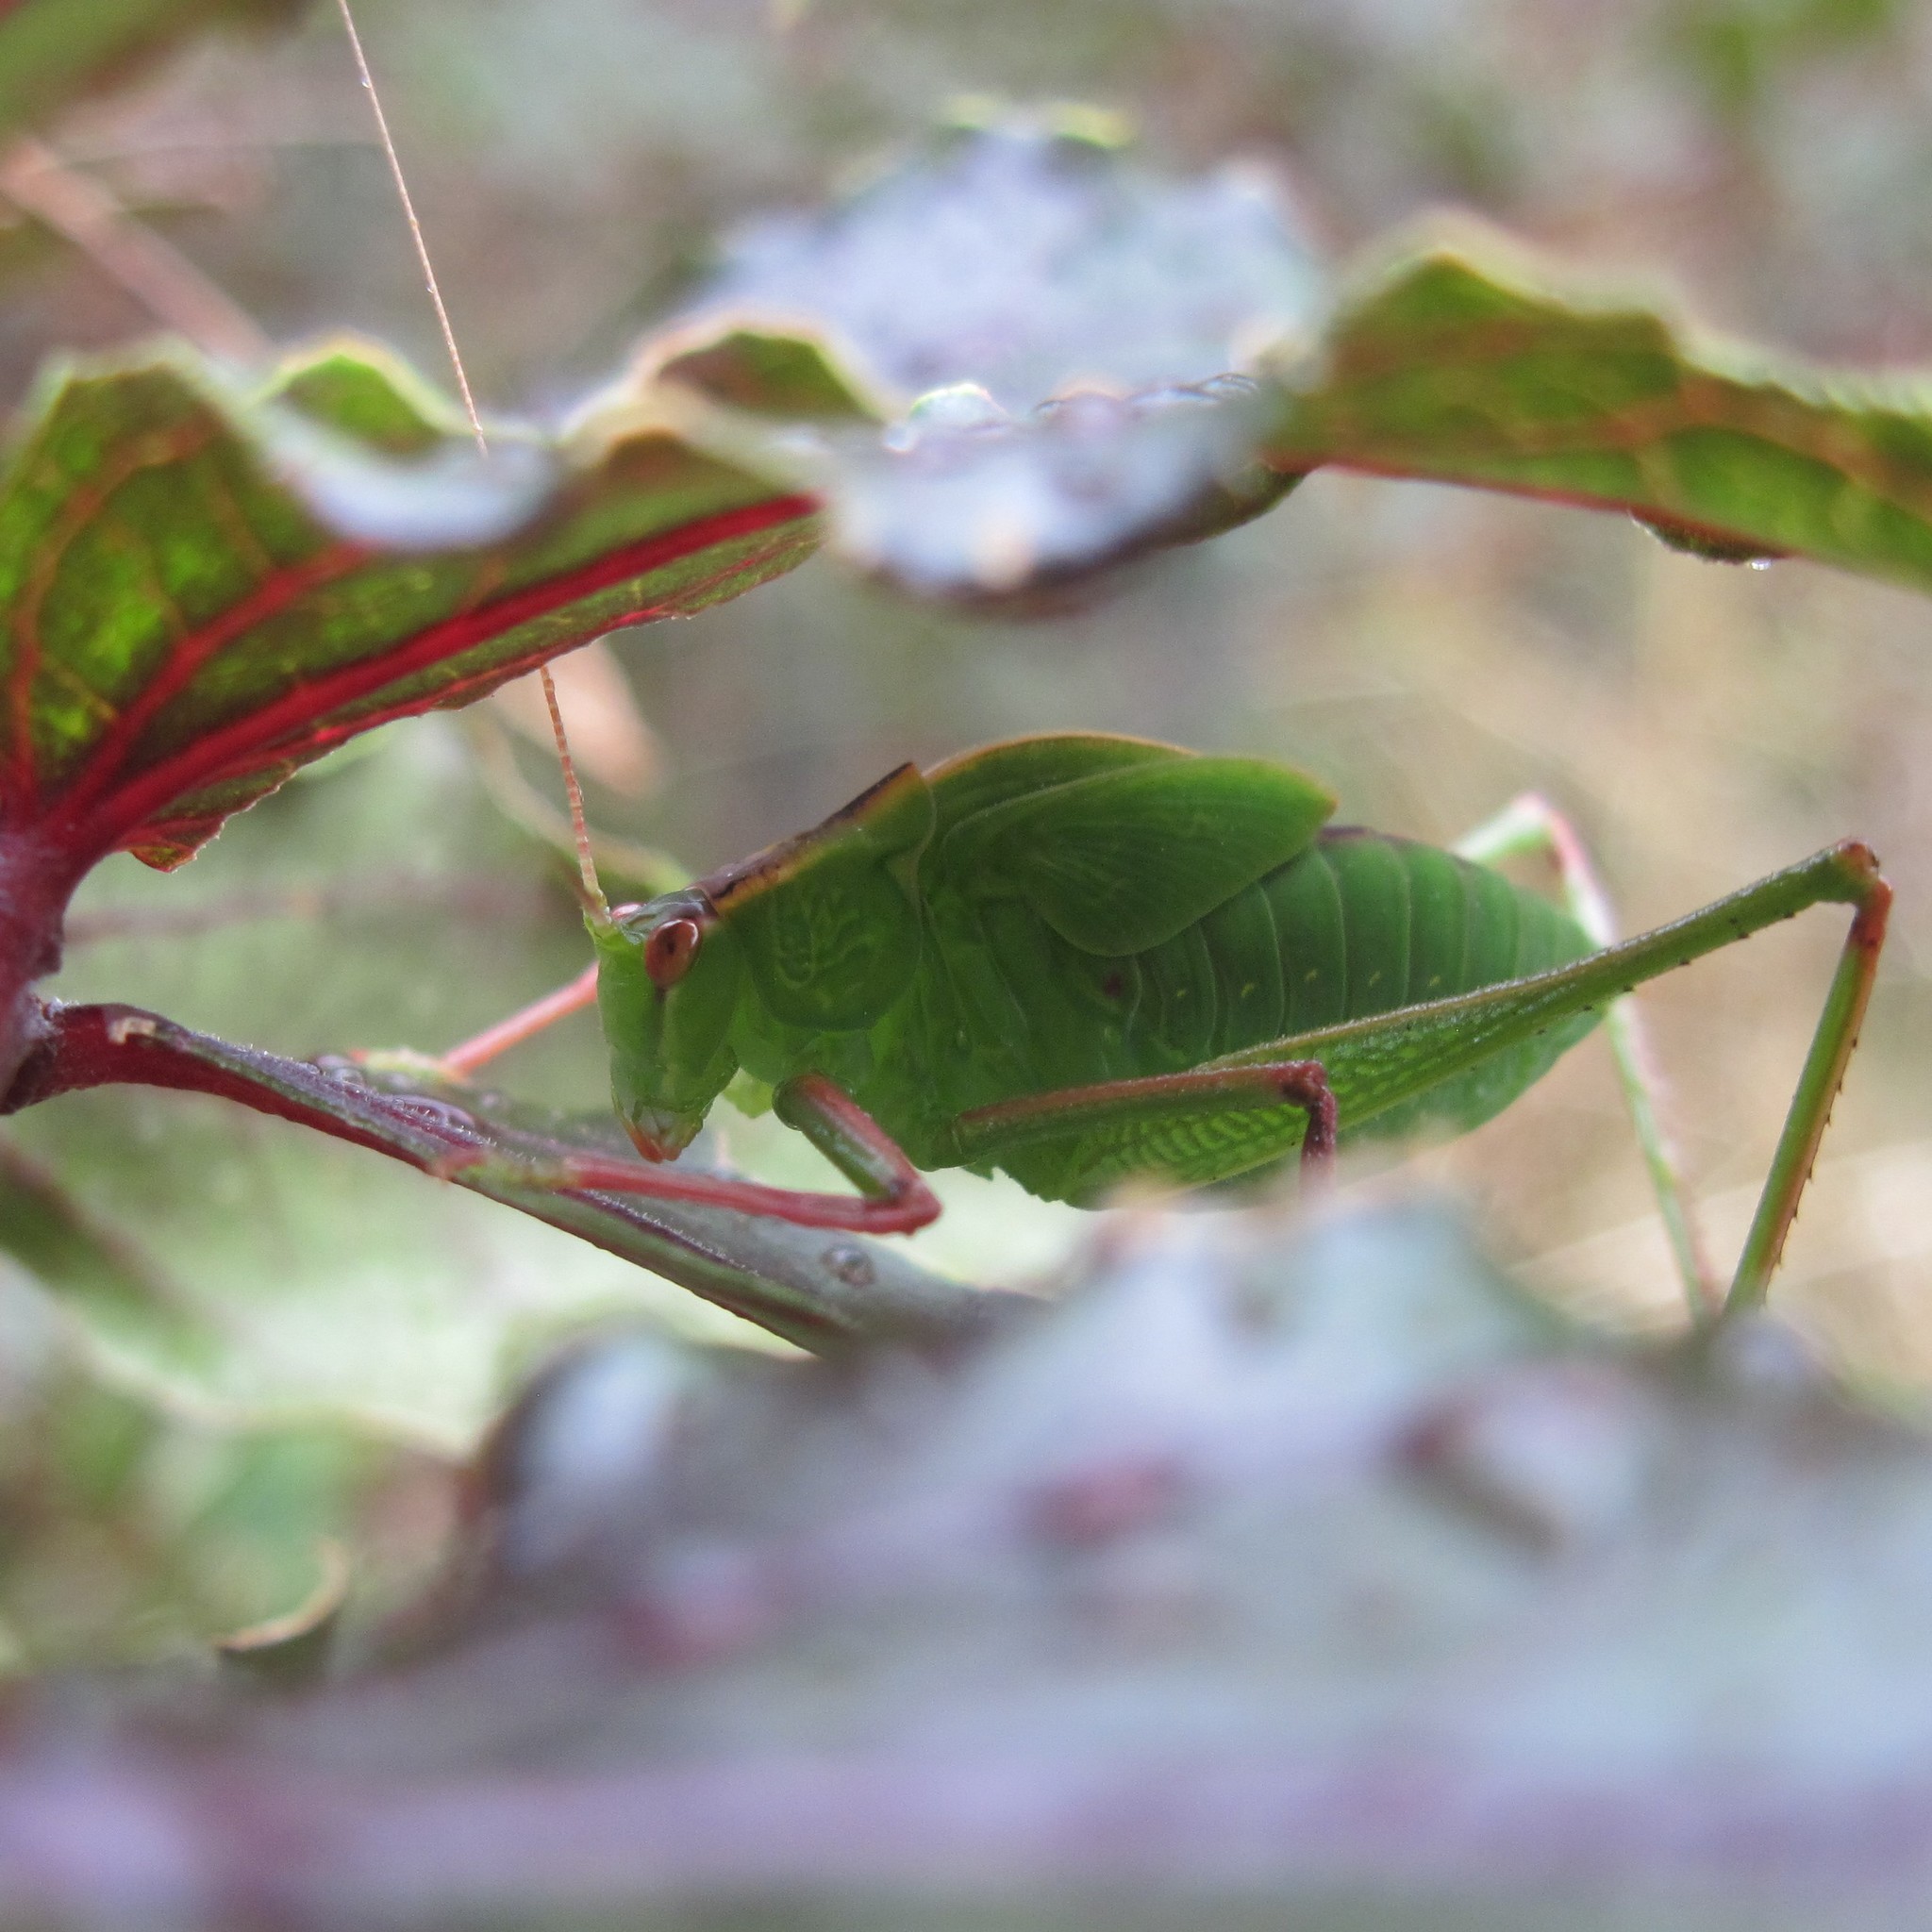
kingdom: Animalia
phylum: Arthropoda
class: Insecta
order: Orthoptera
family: Tettigoniidae
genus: Caedicia
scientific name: Caedicia simplex
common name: Common garden katydid
